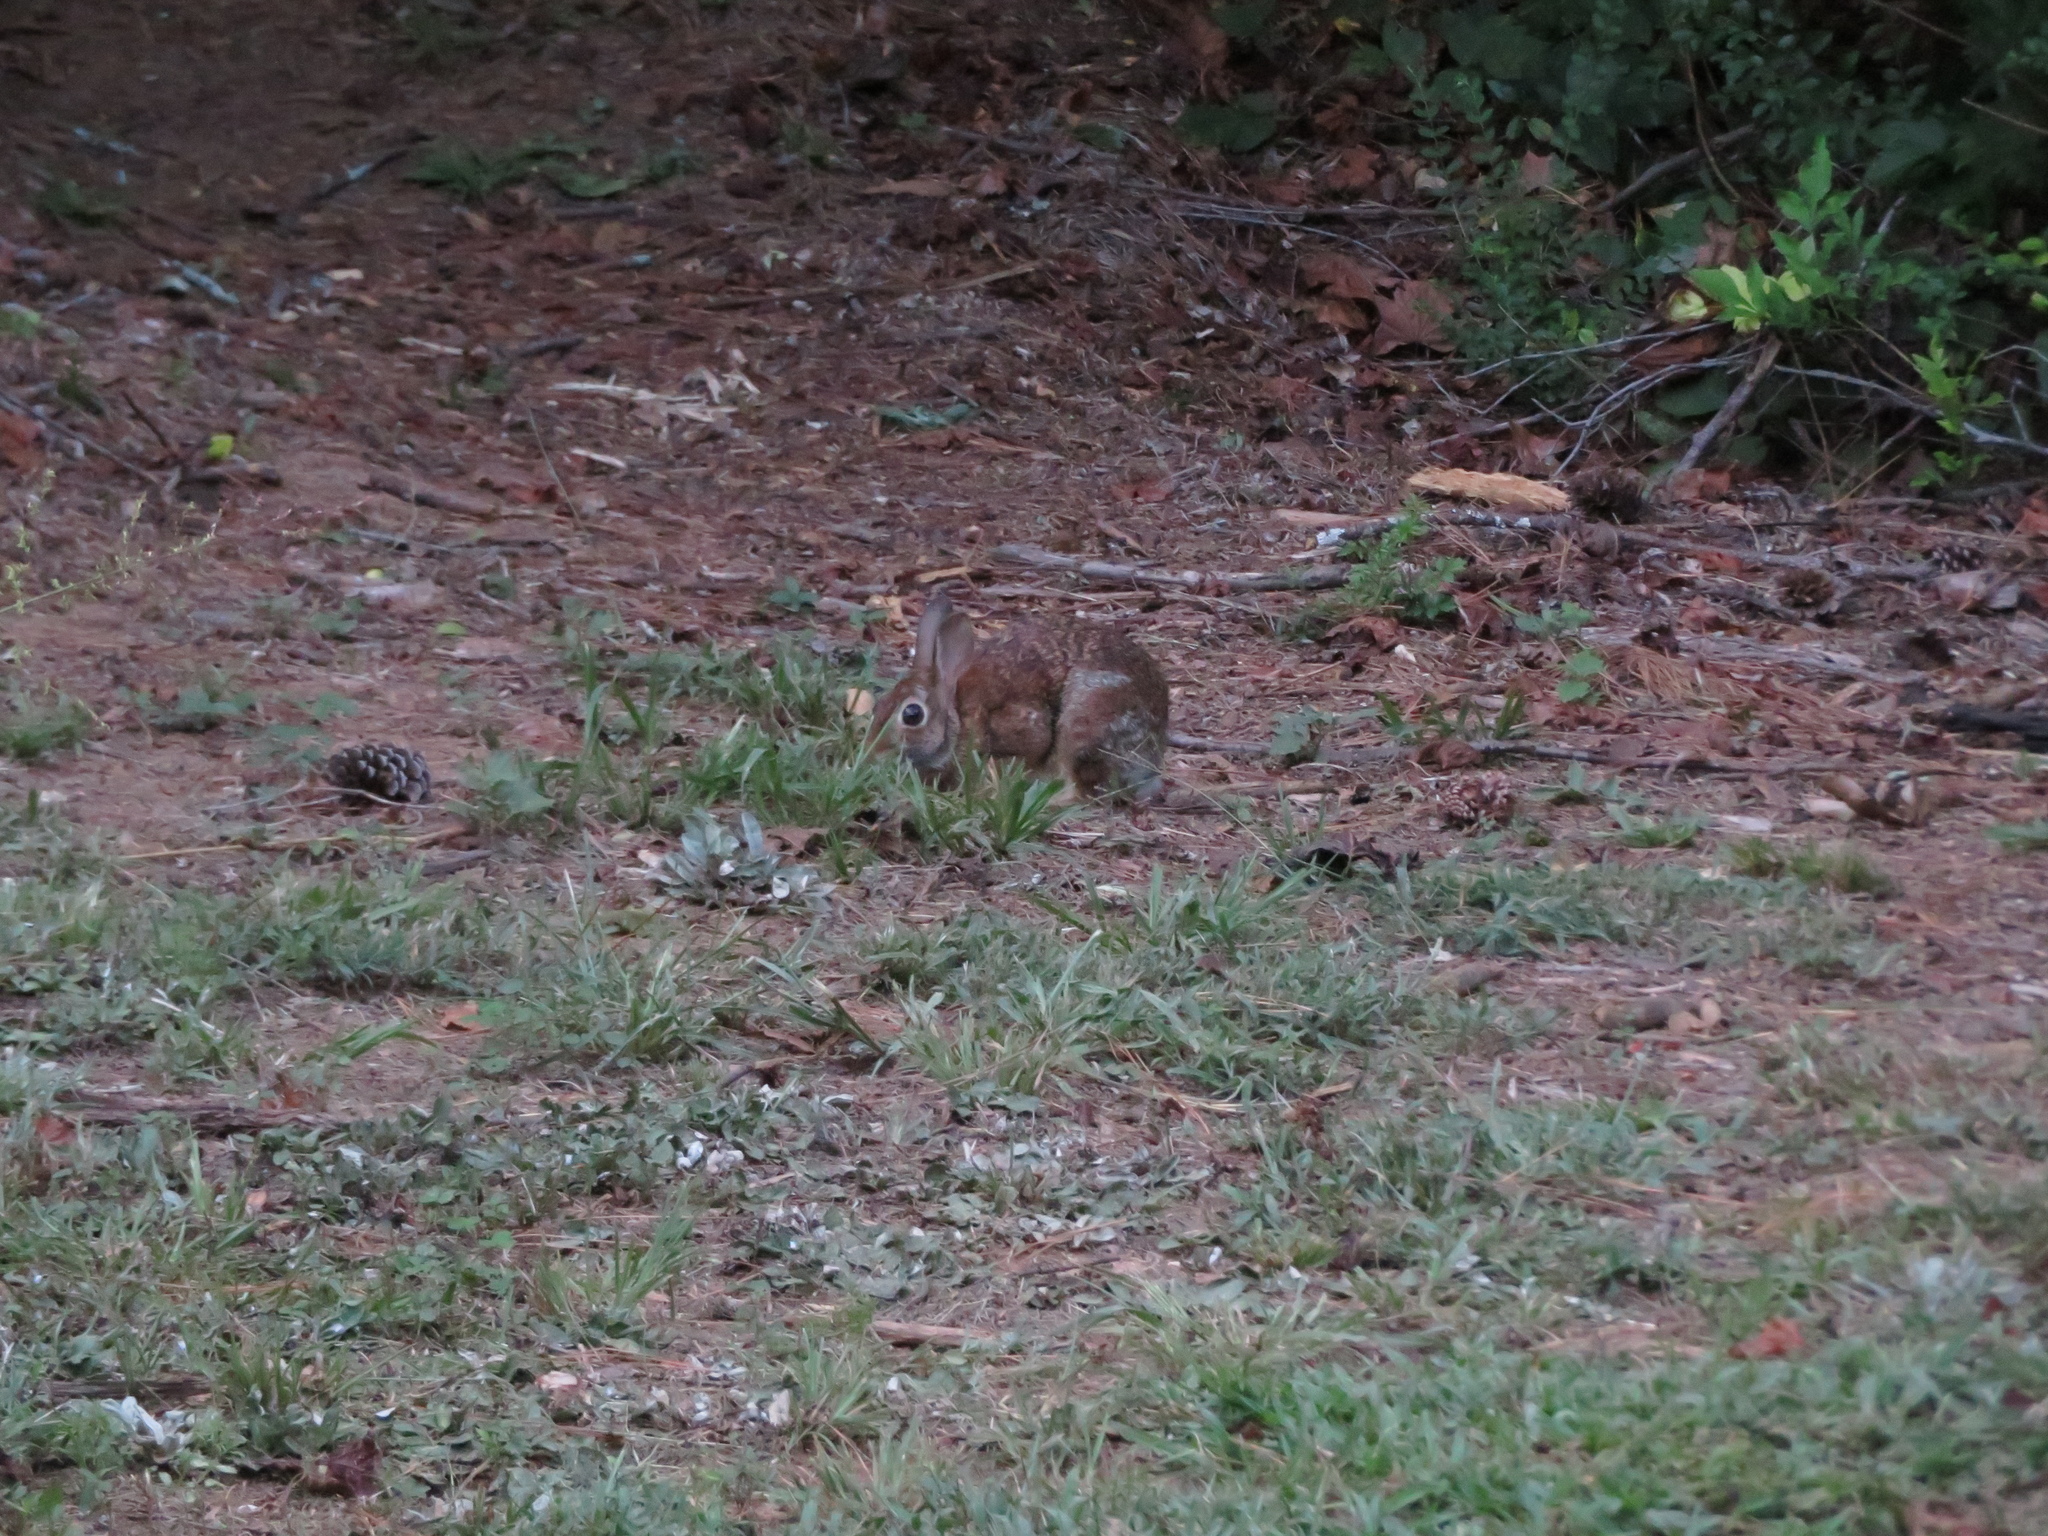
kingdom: Animalia
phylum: Chordata
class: Mammalia
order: Lagomorpha
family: Leporidae
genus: Sylvilagus
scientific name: Sylvilagus floridanus
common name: Eastern cottontail
